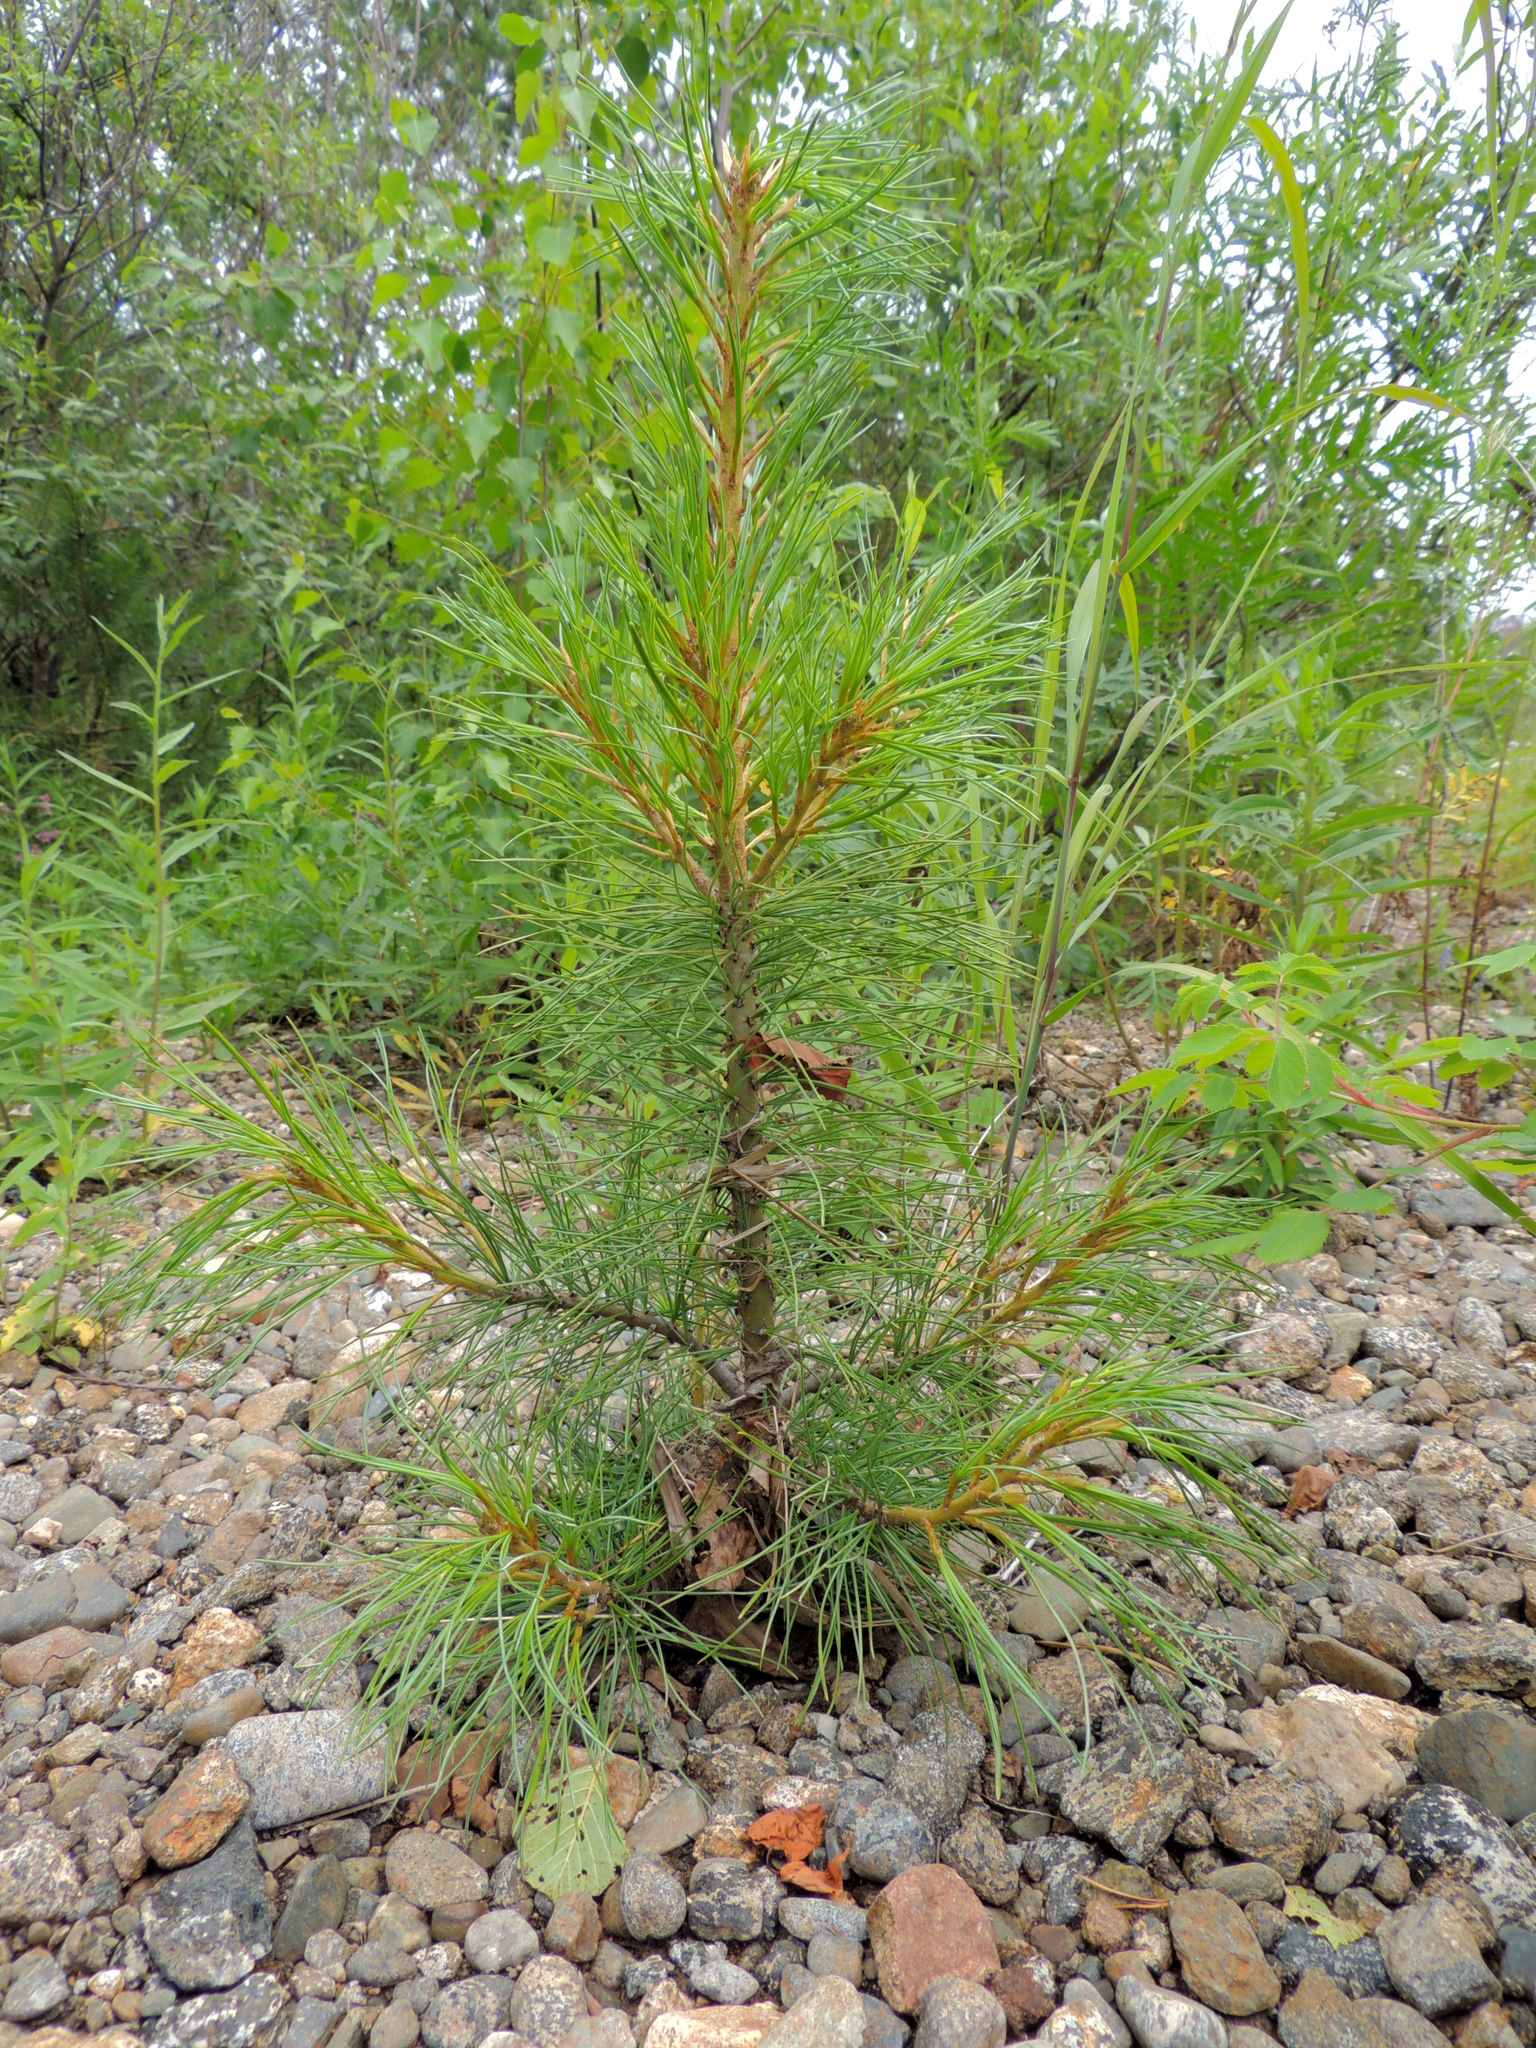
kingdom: Plantae
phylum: Tracheophyta
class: Pinopsida
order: Pinales
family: Pinaceae
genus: Pinus
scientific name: Pinus sibirica
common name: Siberian pine
